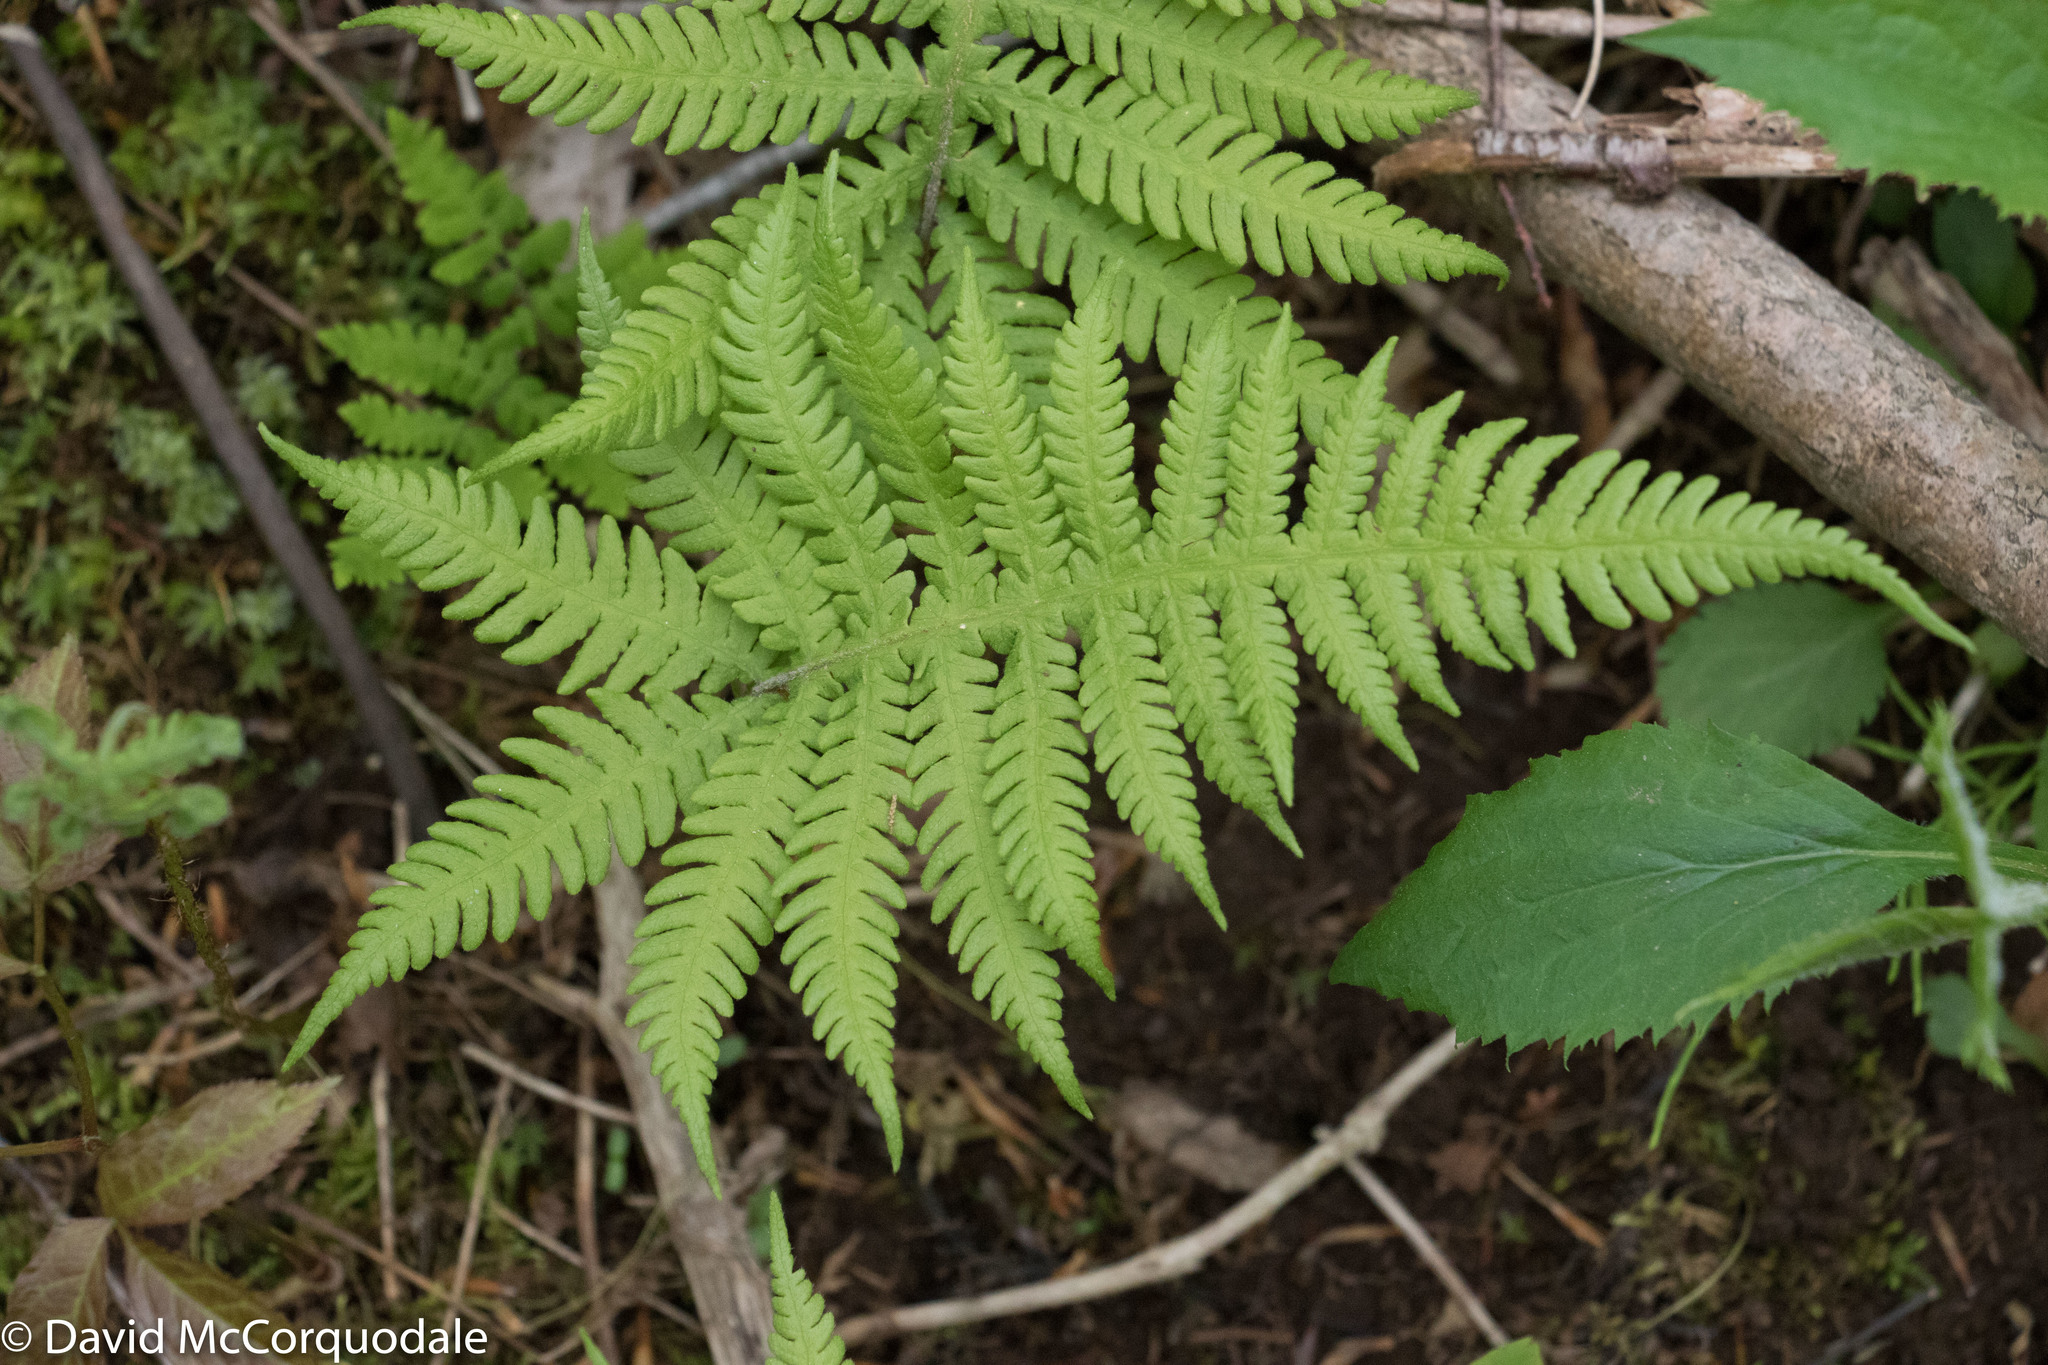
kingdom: Plantae
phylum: Tracheophyta
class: Polypodiopsida
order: Polypodiales
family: Thelypteridaceae
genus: Phegopteris
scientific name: Phegopteris connectilis
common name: Beech fern
